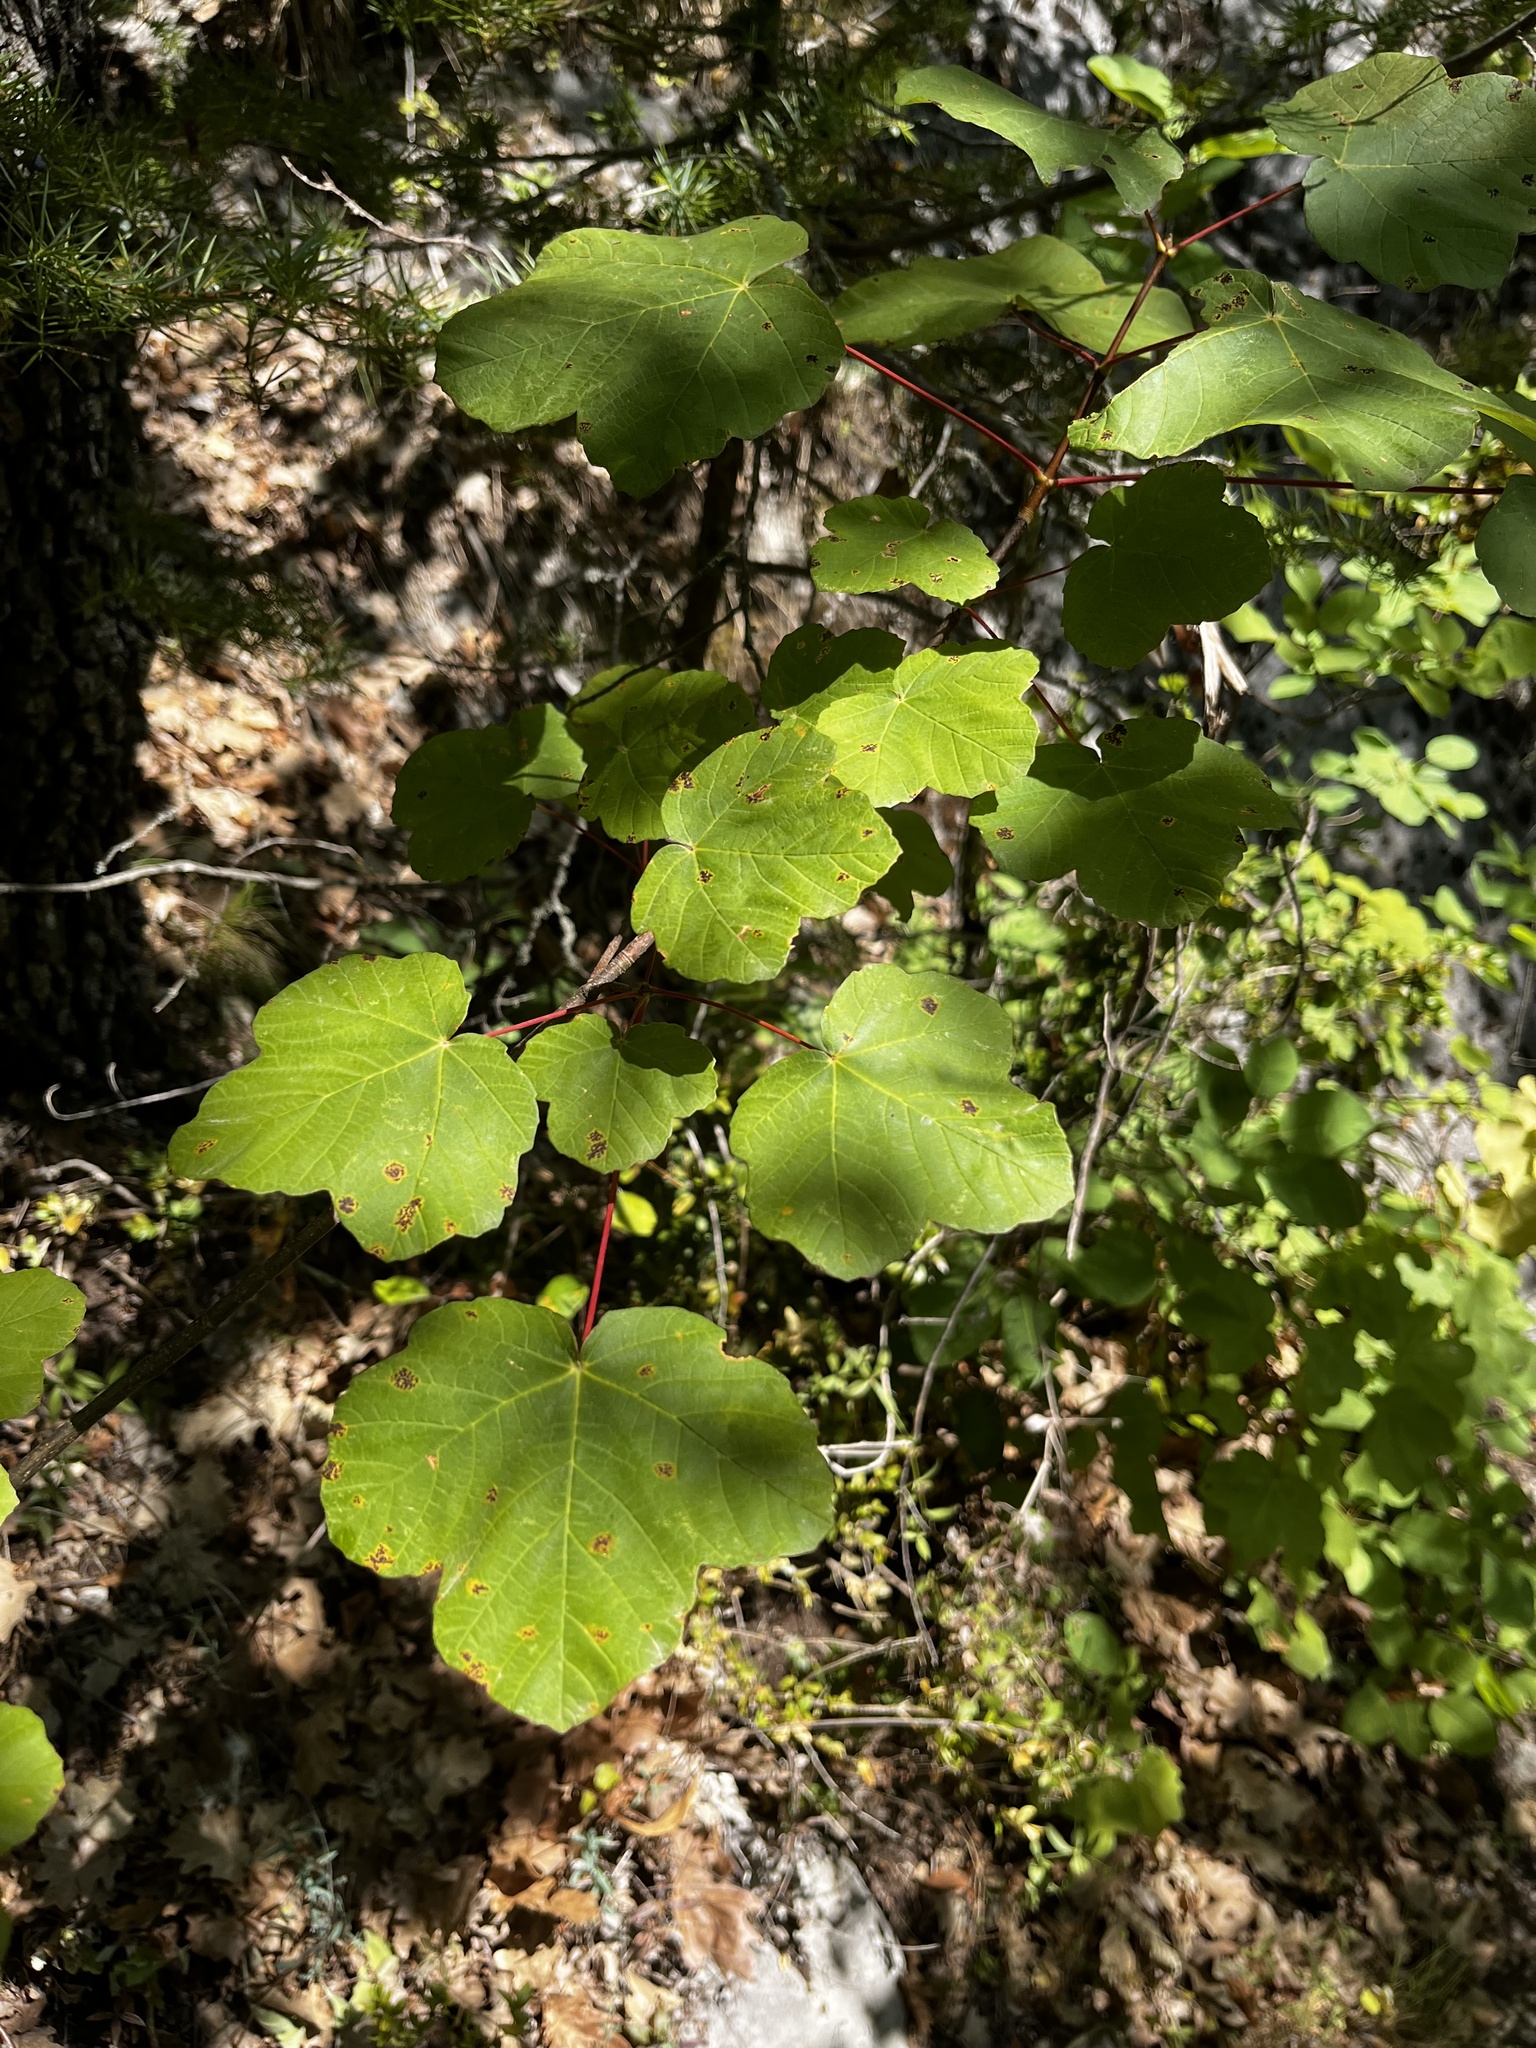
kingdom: Plantae
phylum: Tracheophyta
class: Magnoliopsida
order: Sapindales
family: Sapindaceae
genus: Acer
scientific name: Acer opalus
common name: Italian maple
